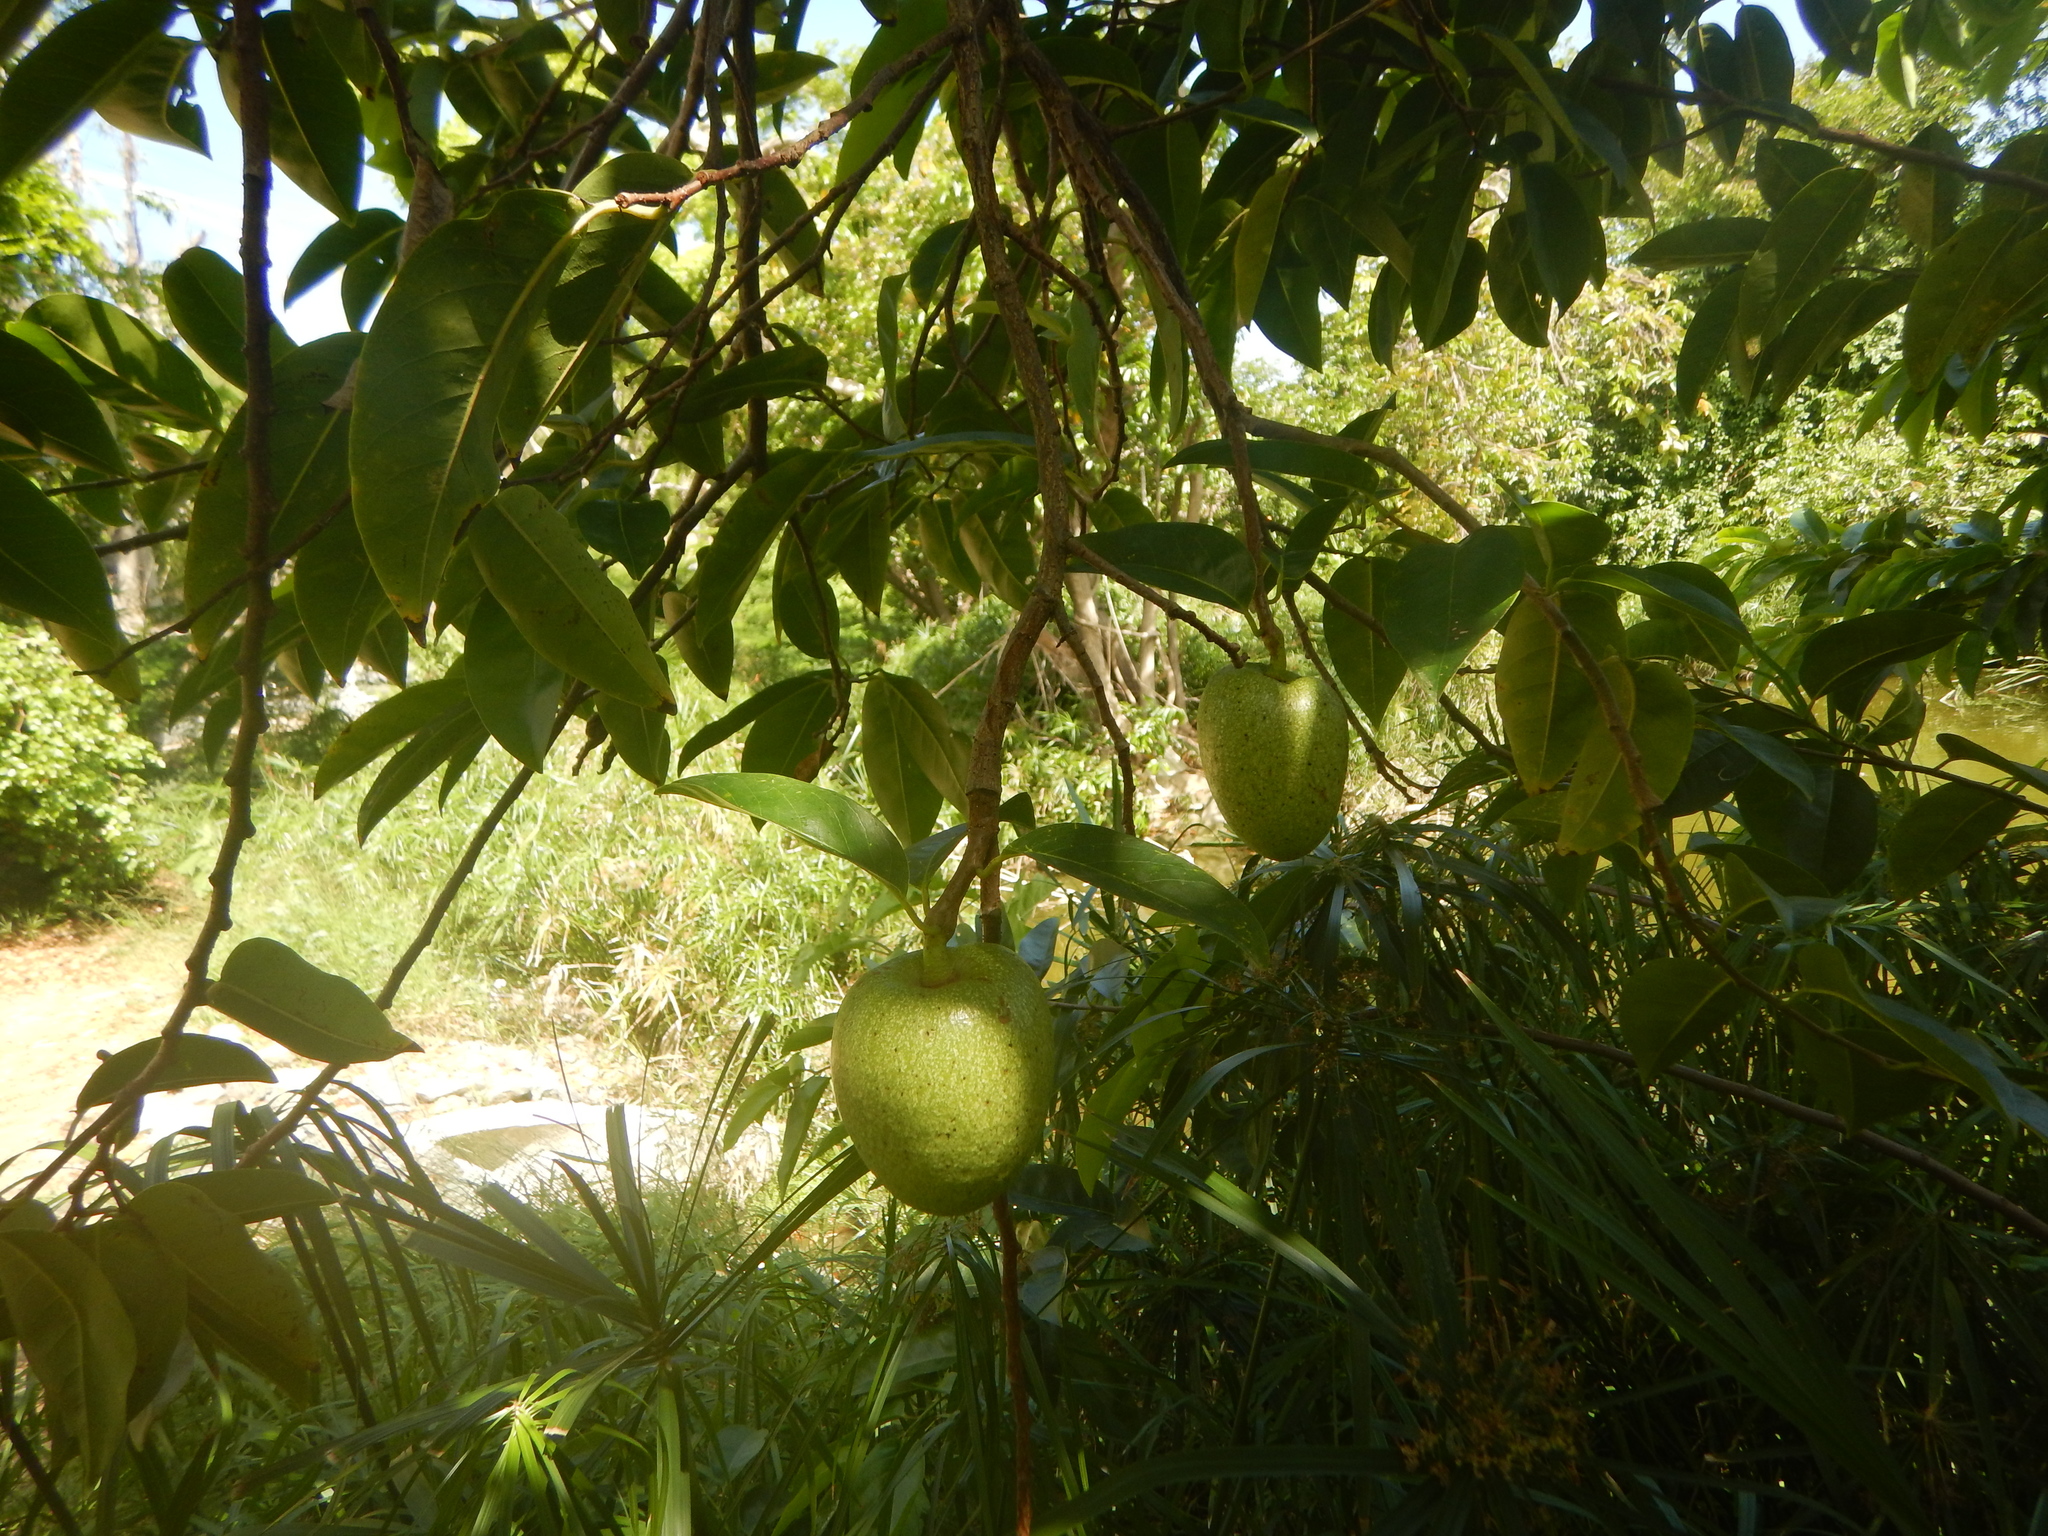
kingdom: Plantae
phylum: Tracheophyta
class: Magnoliopsida
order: Magnoliales
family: Annonaceae
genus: Annona
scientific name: Annona glabra
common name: Monkey apple
